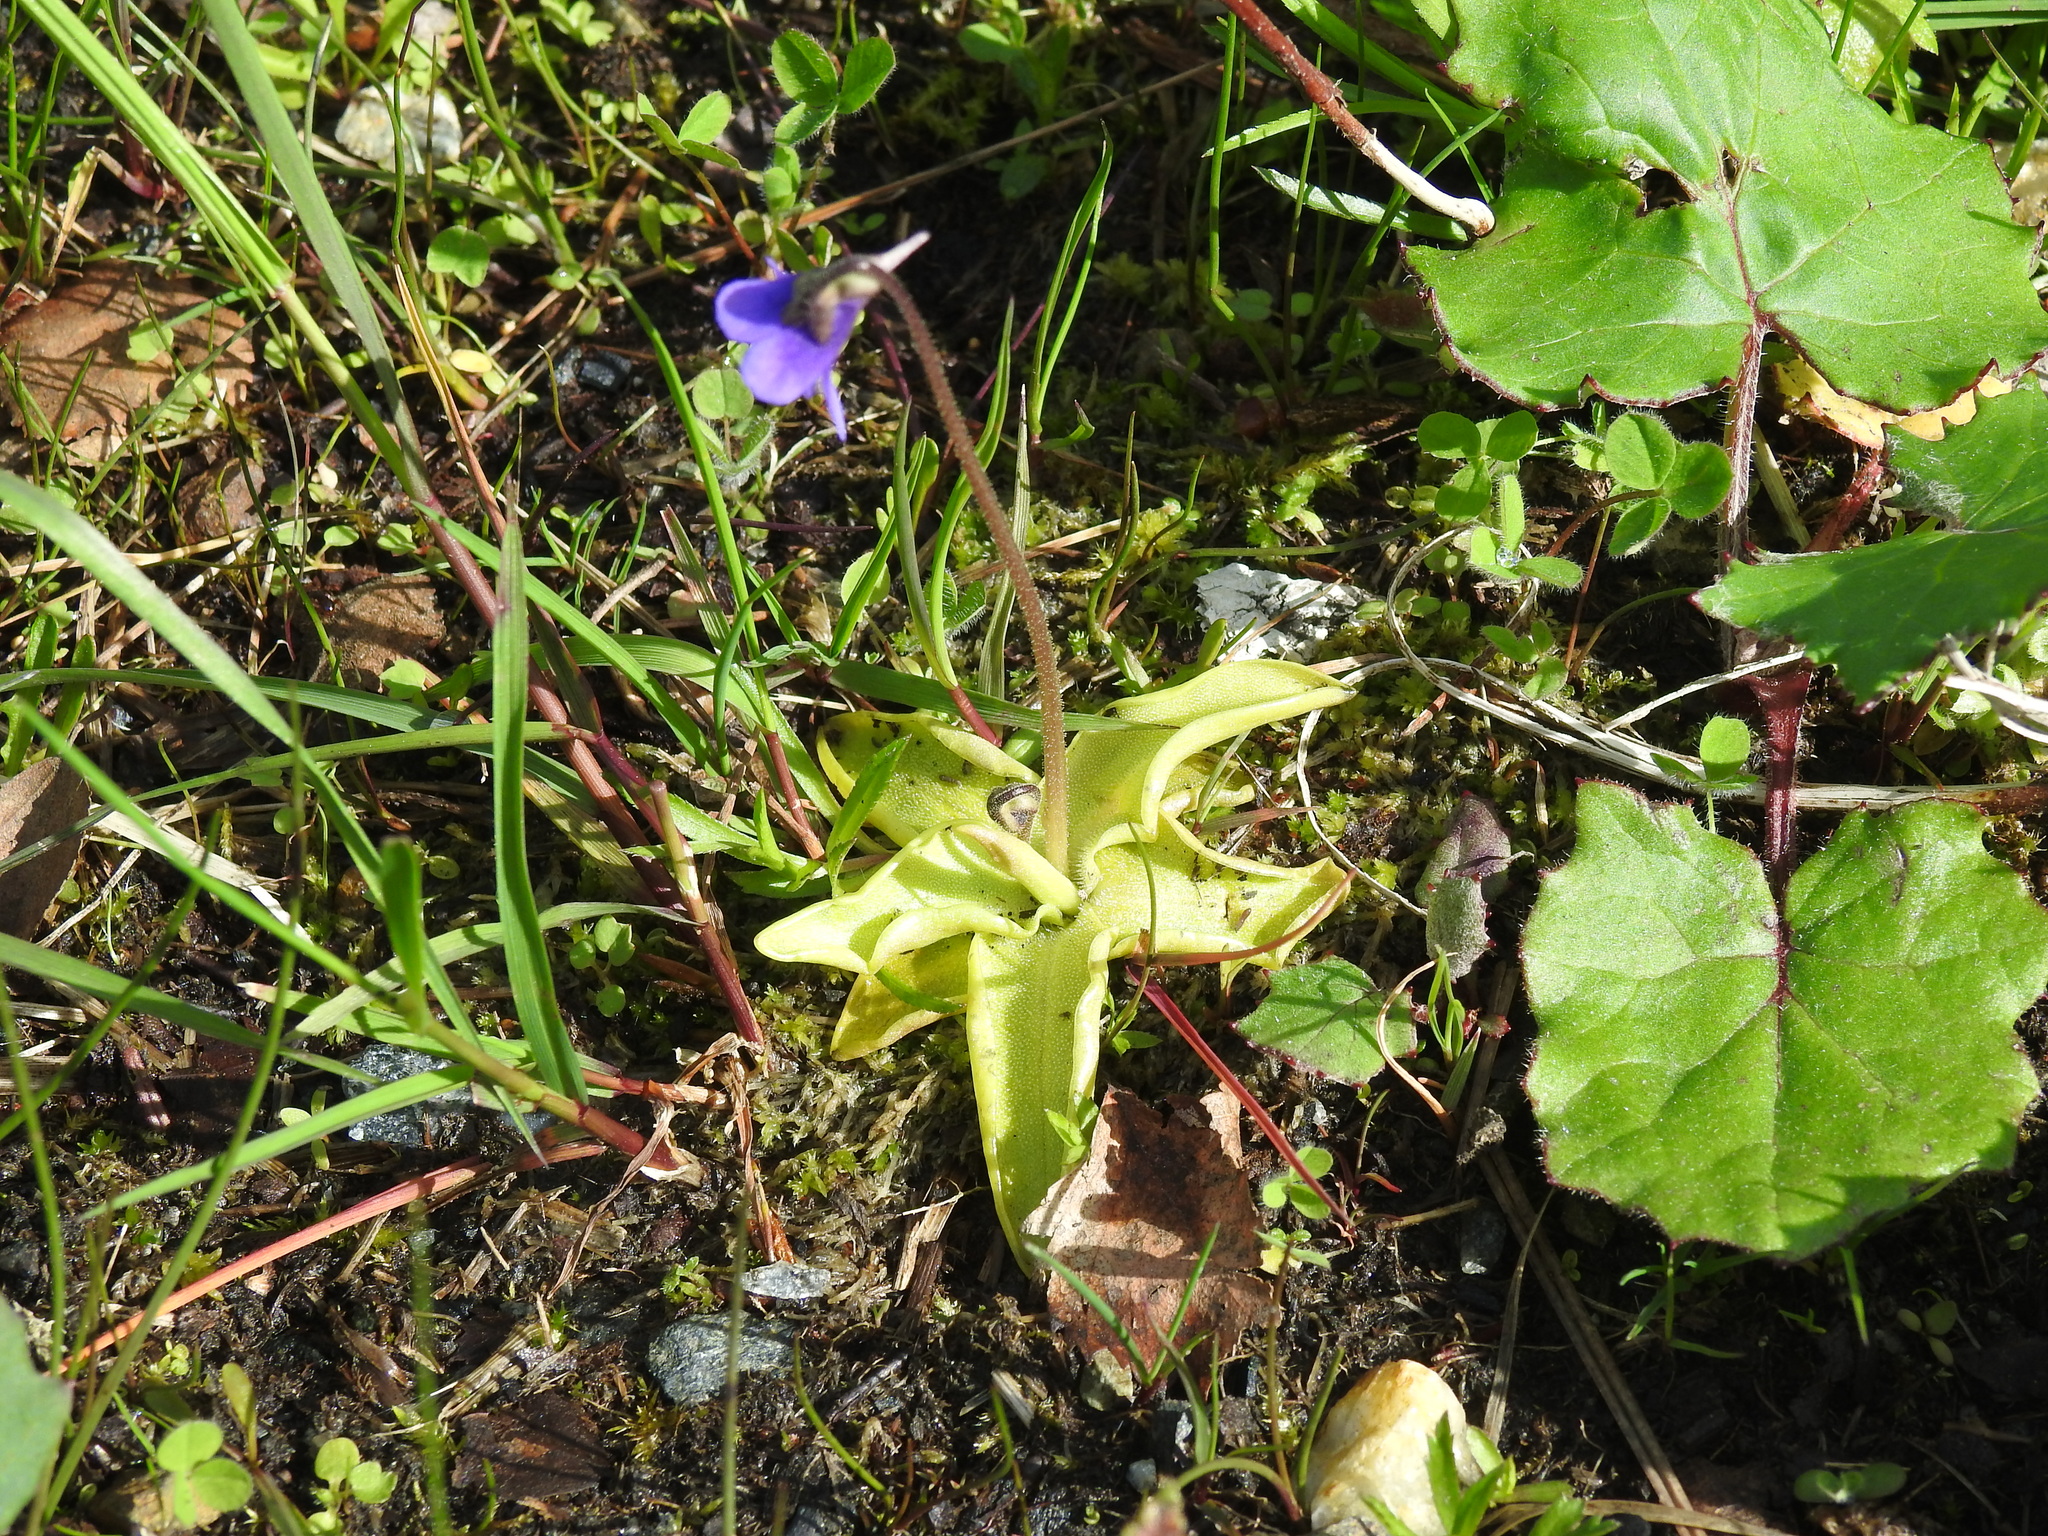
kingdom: Plantae
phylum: Tracheophyta
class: Magnoliopsida
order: Lamiales
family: Lentibulariaceae
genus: Pinguicula
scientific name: Pinguicula vulgaris
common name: Common butterwort
